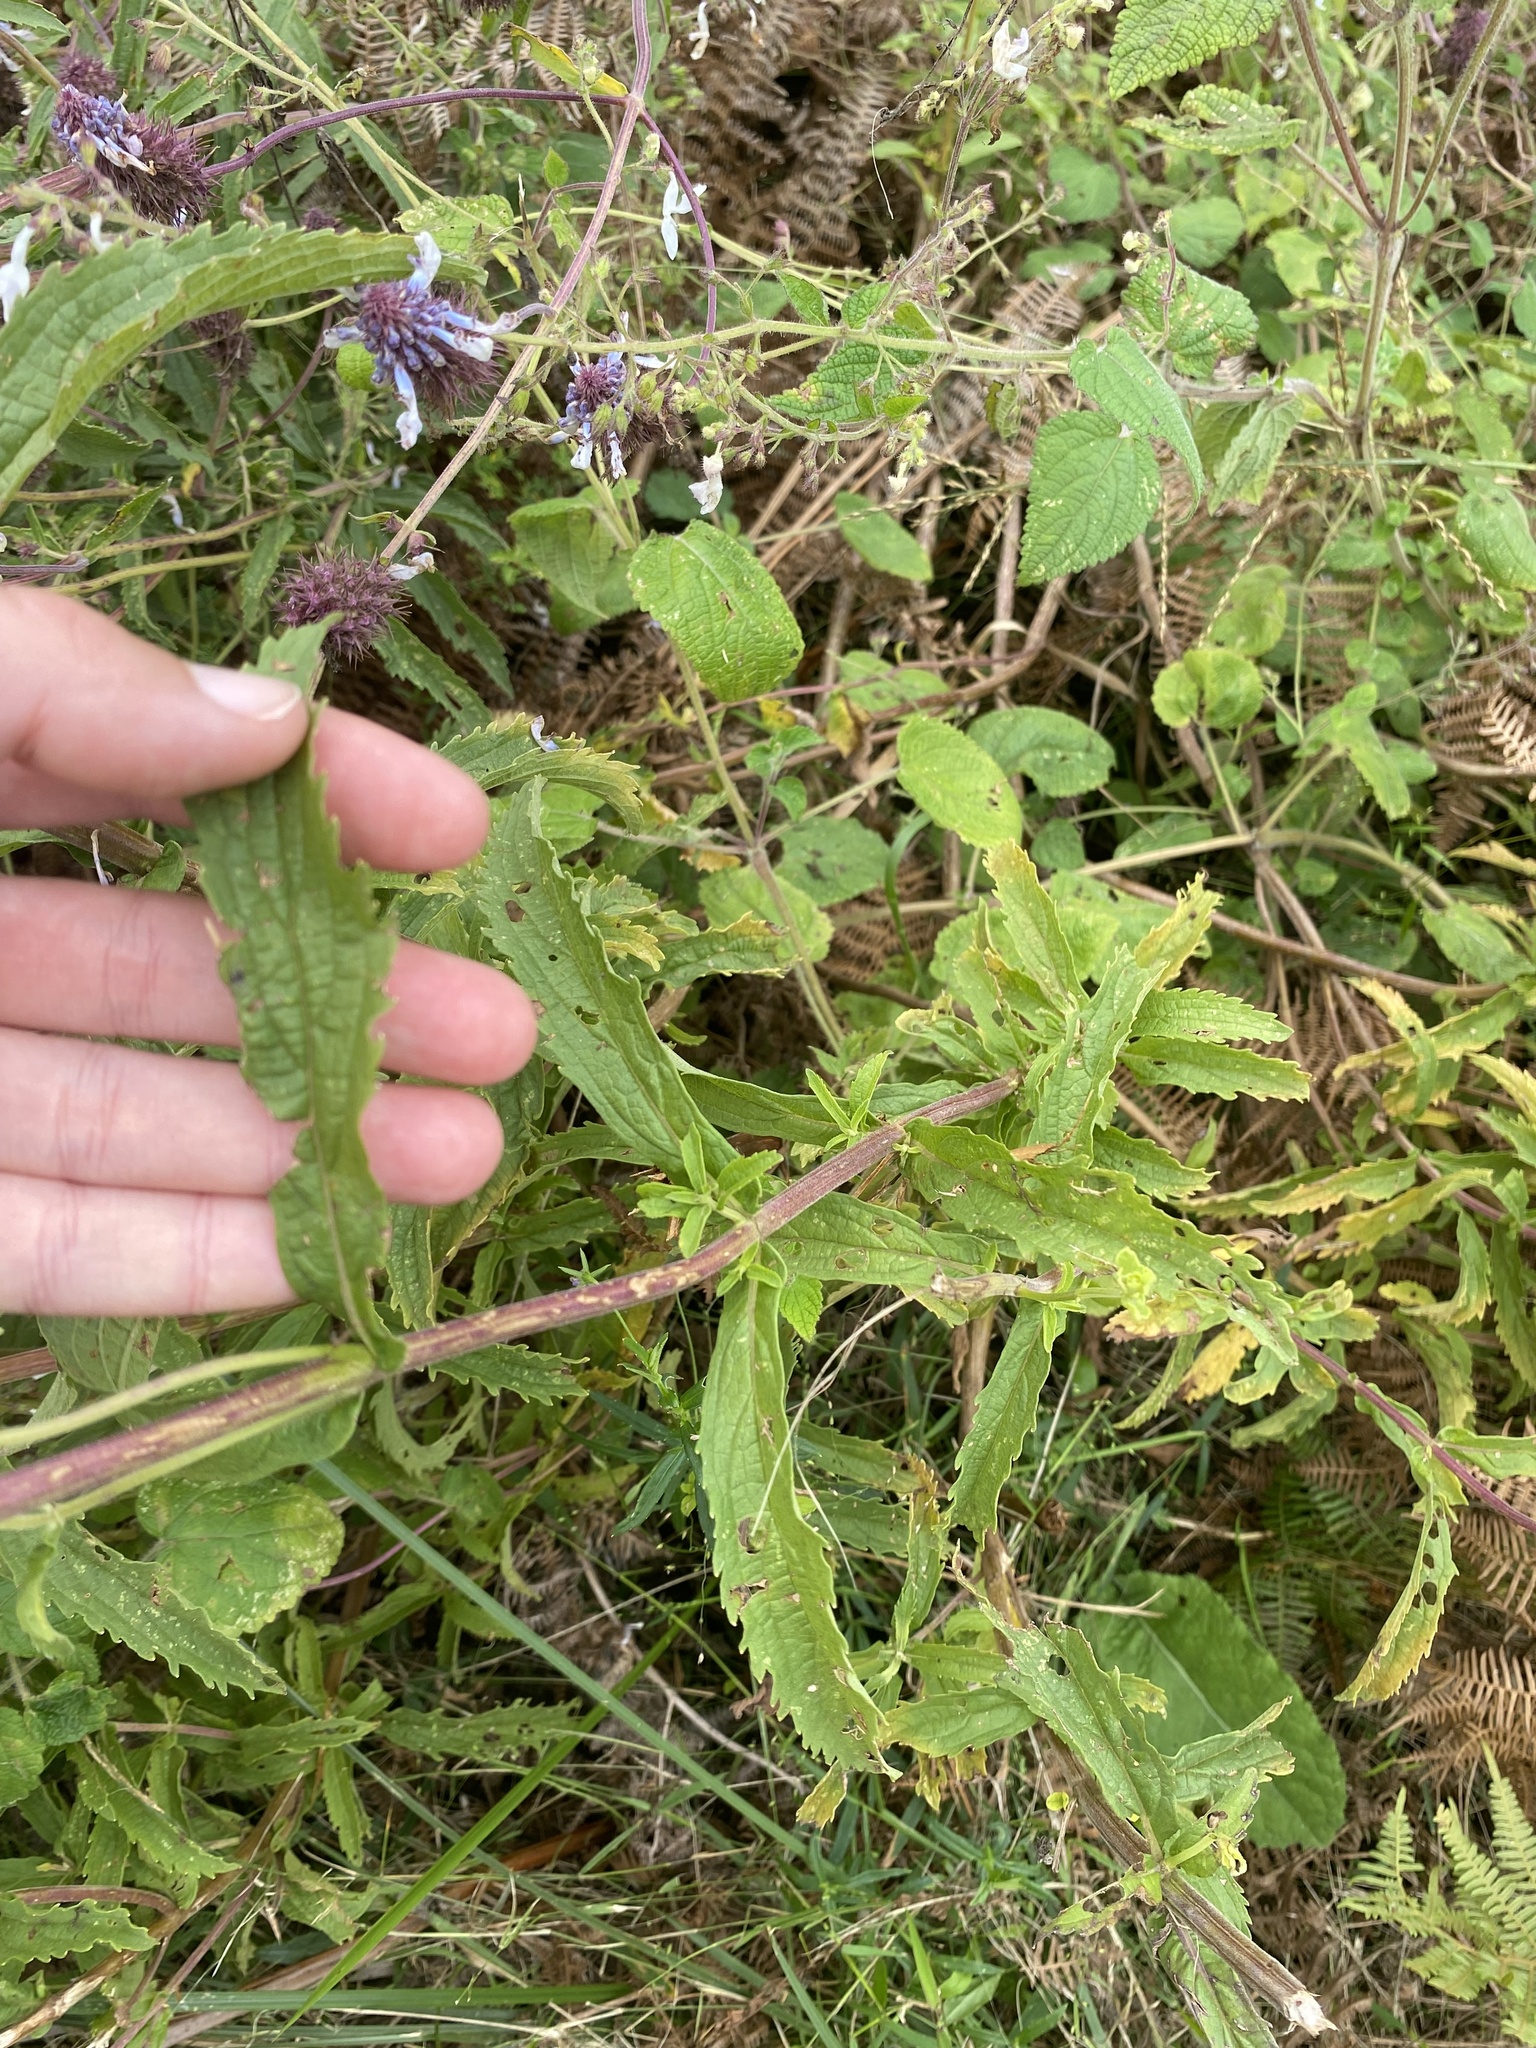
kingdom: Plantae
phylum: Tracheophyta
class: Magnoliopsida
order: Lamiales
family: Lamiaceae
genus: Coleus
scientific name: Coleus kirkii
